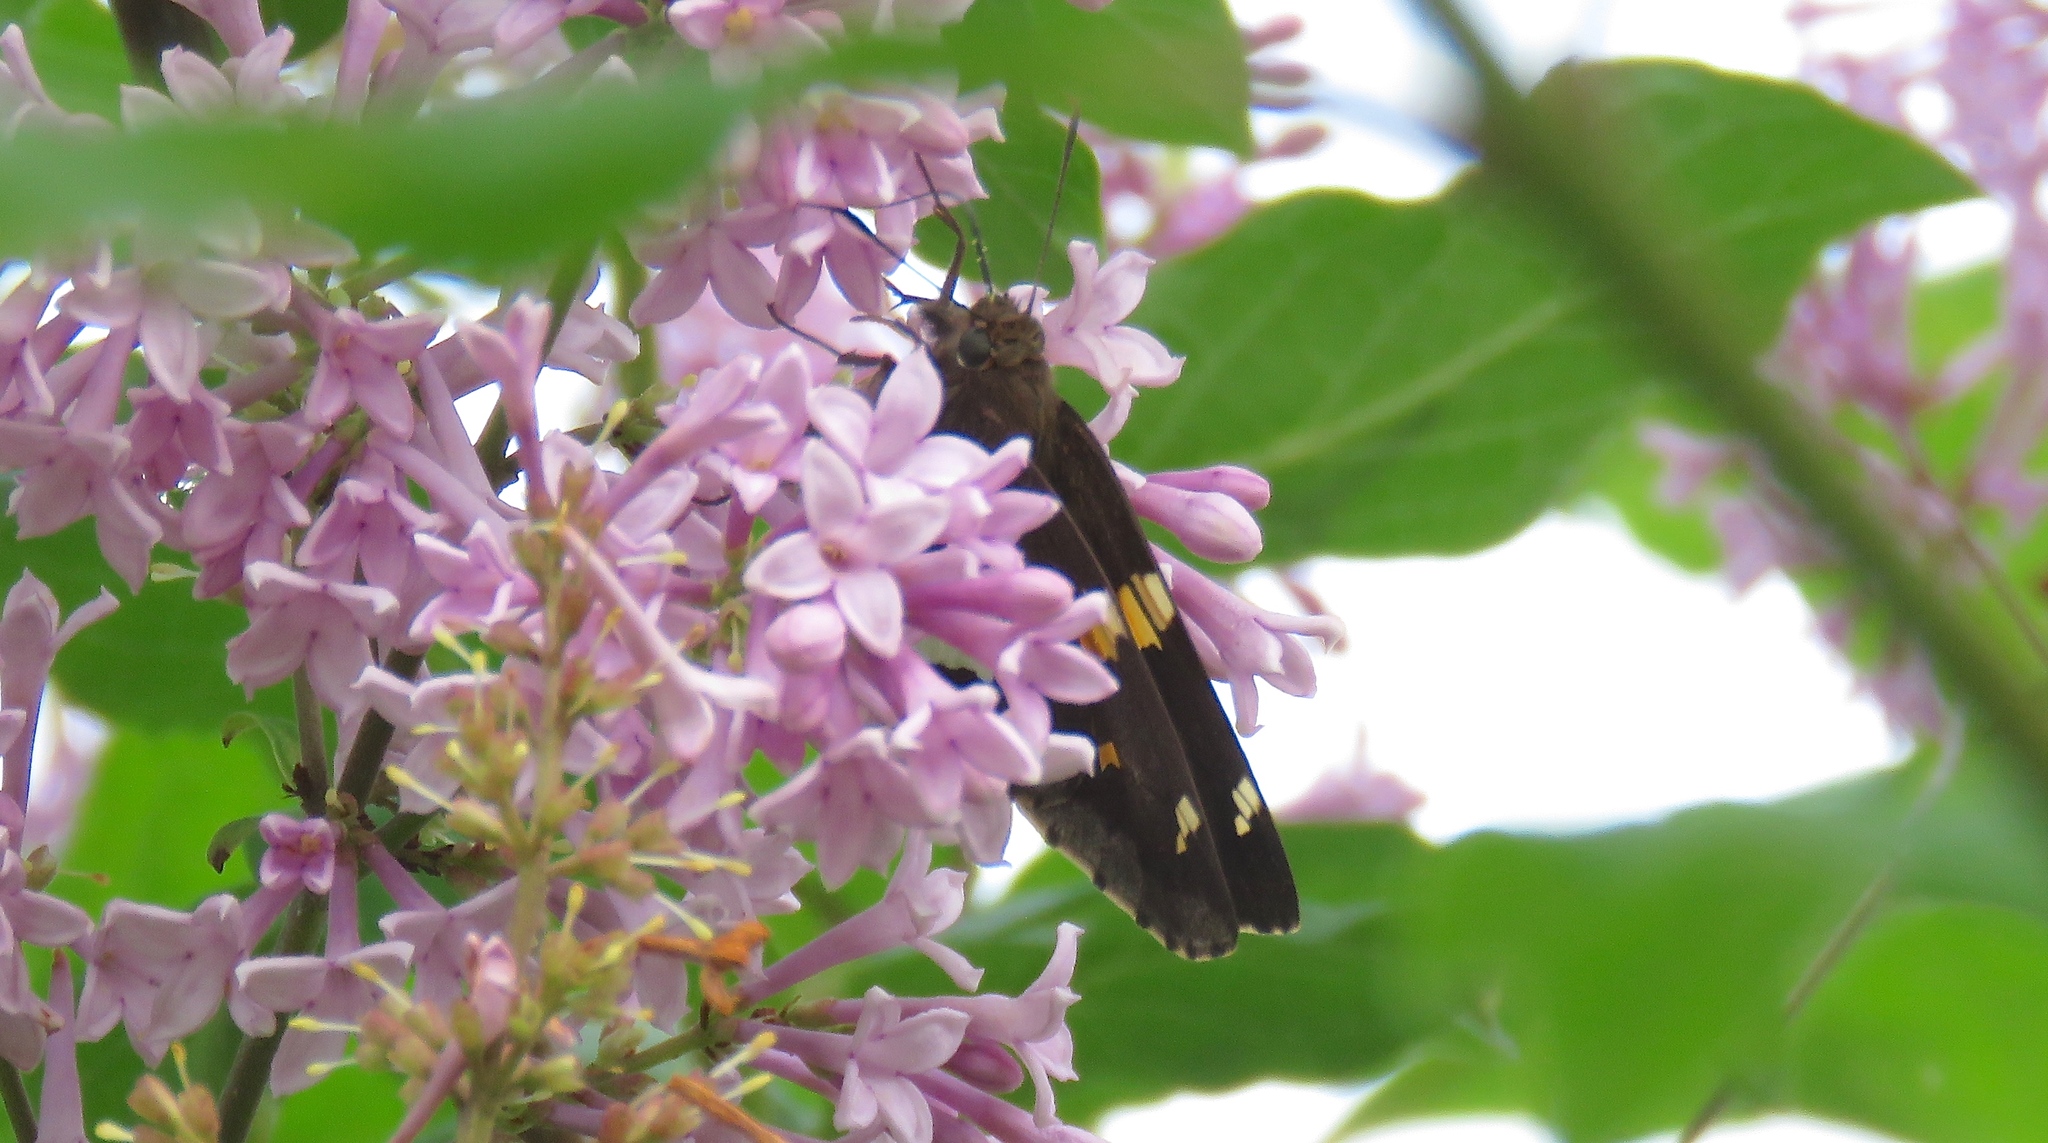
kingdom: Animalia
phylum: Arthropoda
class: Insecta
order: Lepidoptera
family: Hesperiidae
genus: Epargyreus
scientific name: Epargyreus clarus
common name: Silver-spotted skipper
